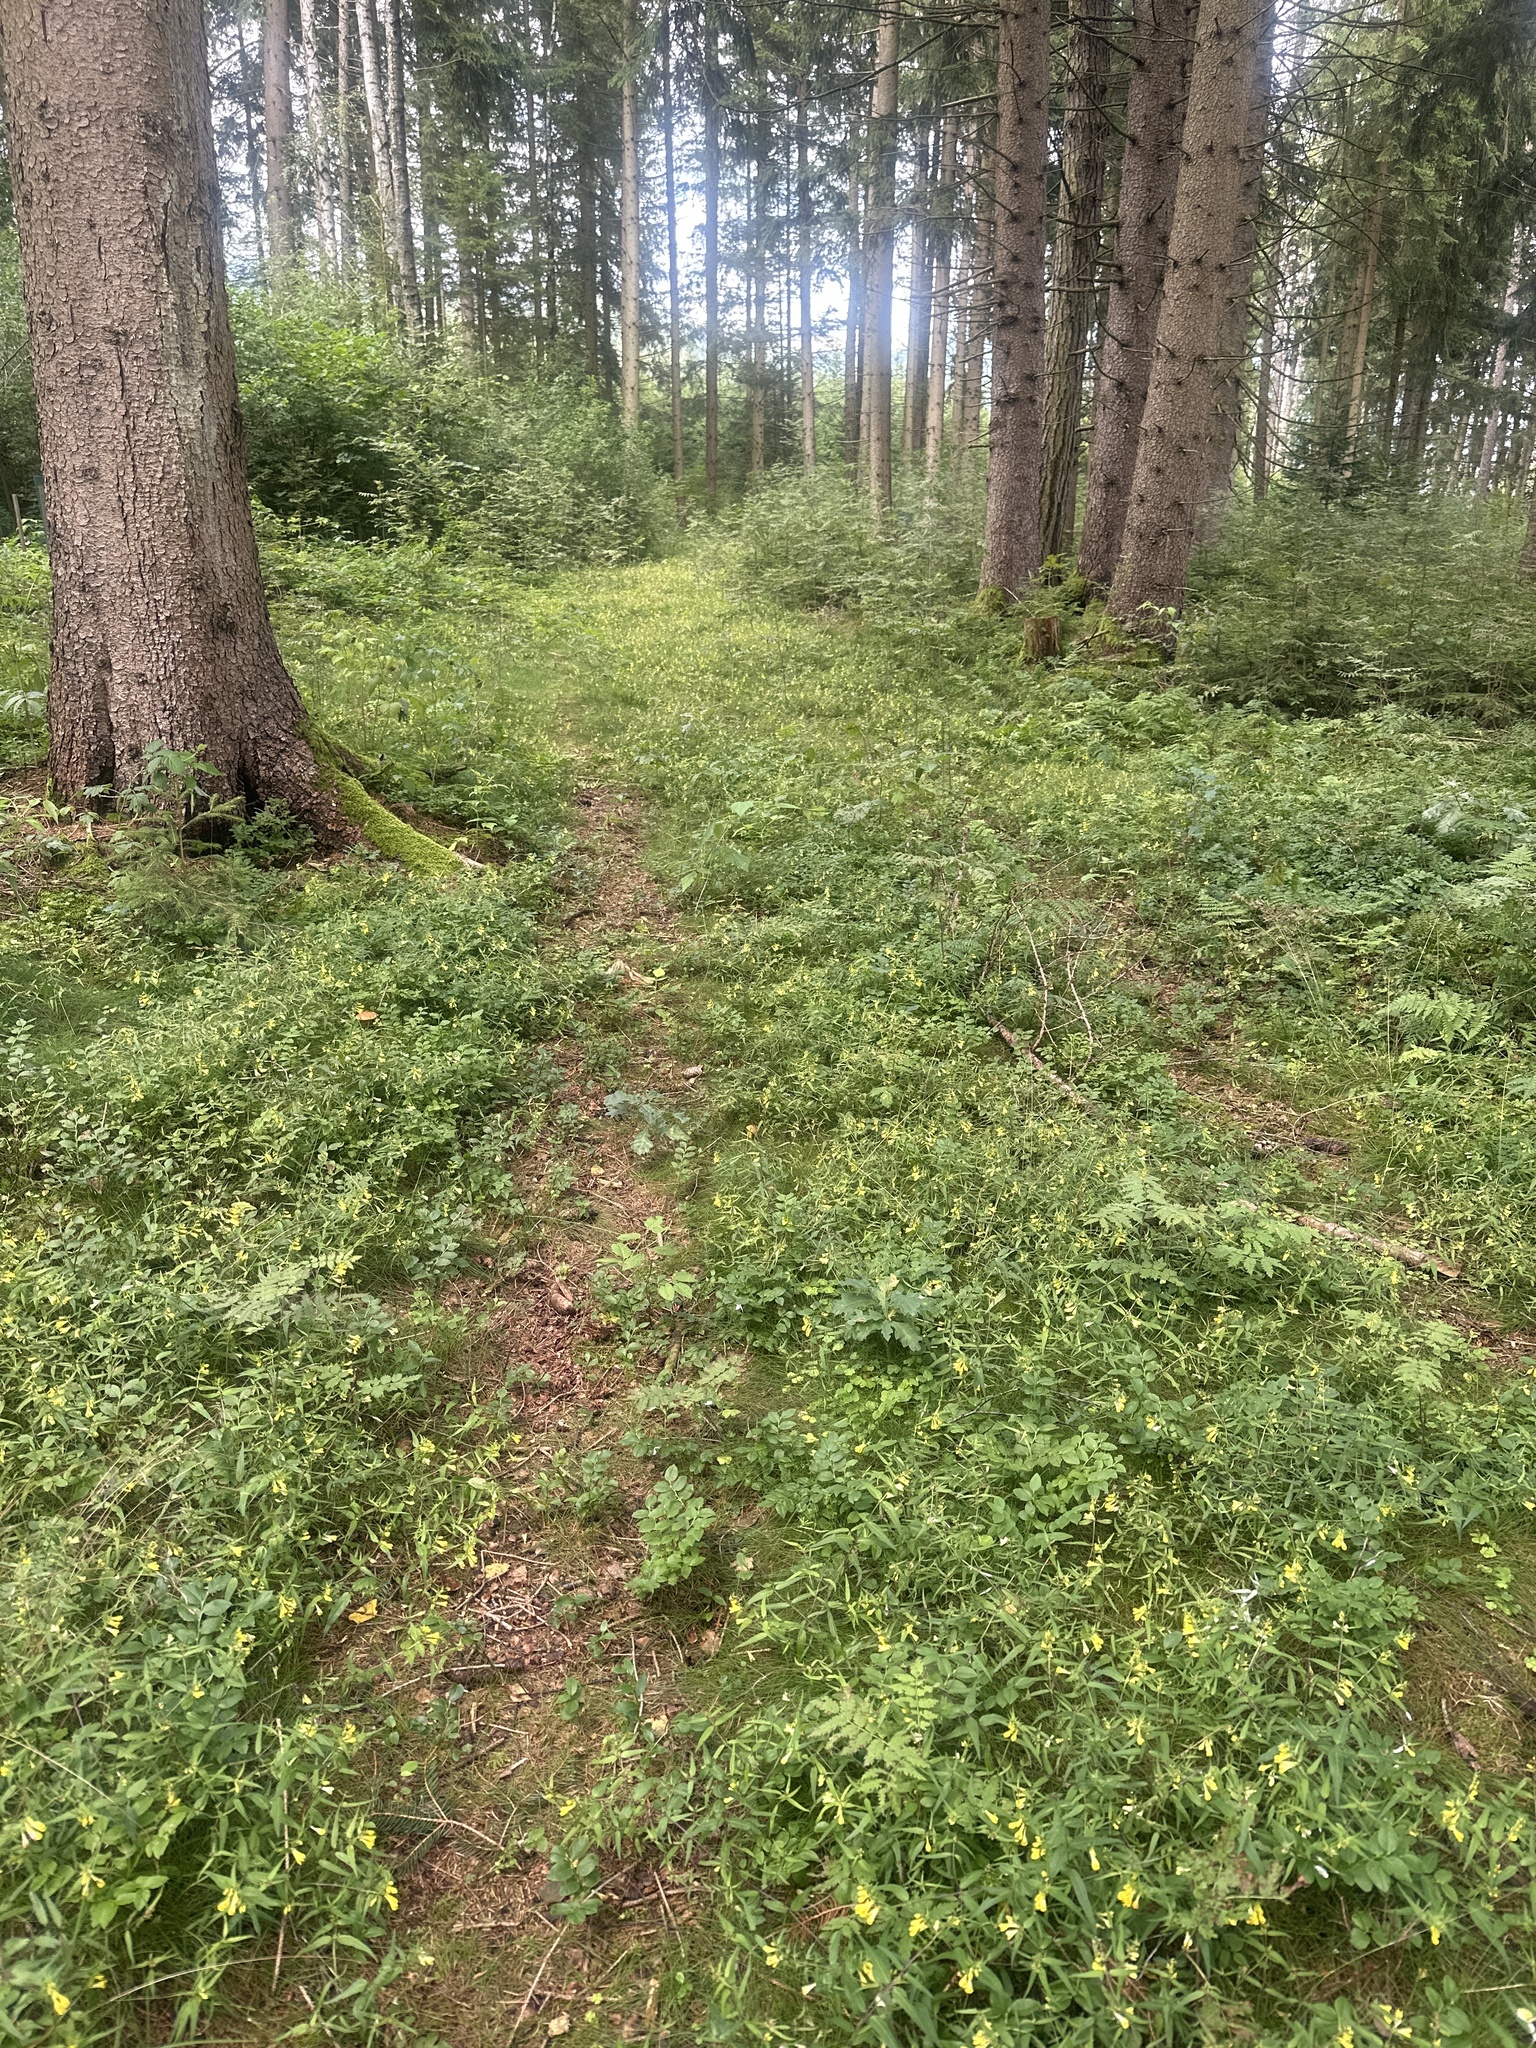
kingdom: Plantae
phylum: Tracheophyta
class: Magnoliopsida
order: Lamiales
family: Orobanchaceae
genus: Melampyrum
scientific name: Melampyrum pratense
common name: Common cow-wheat
